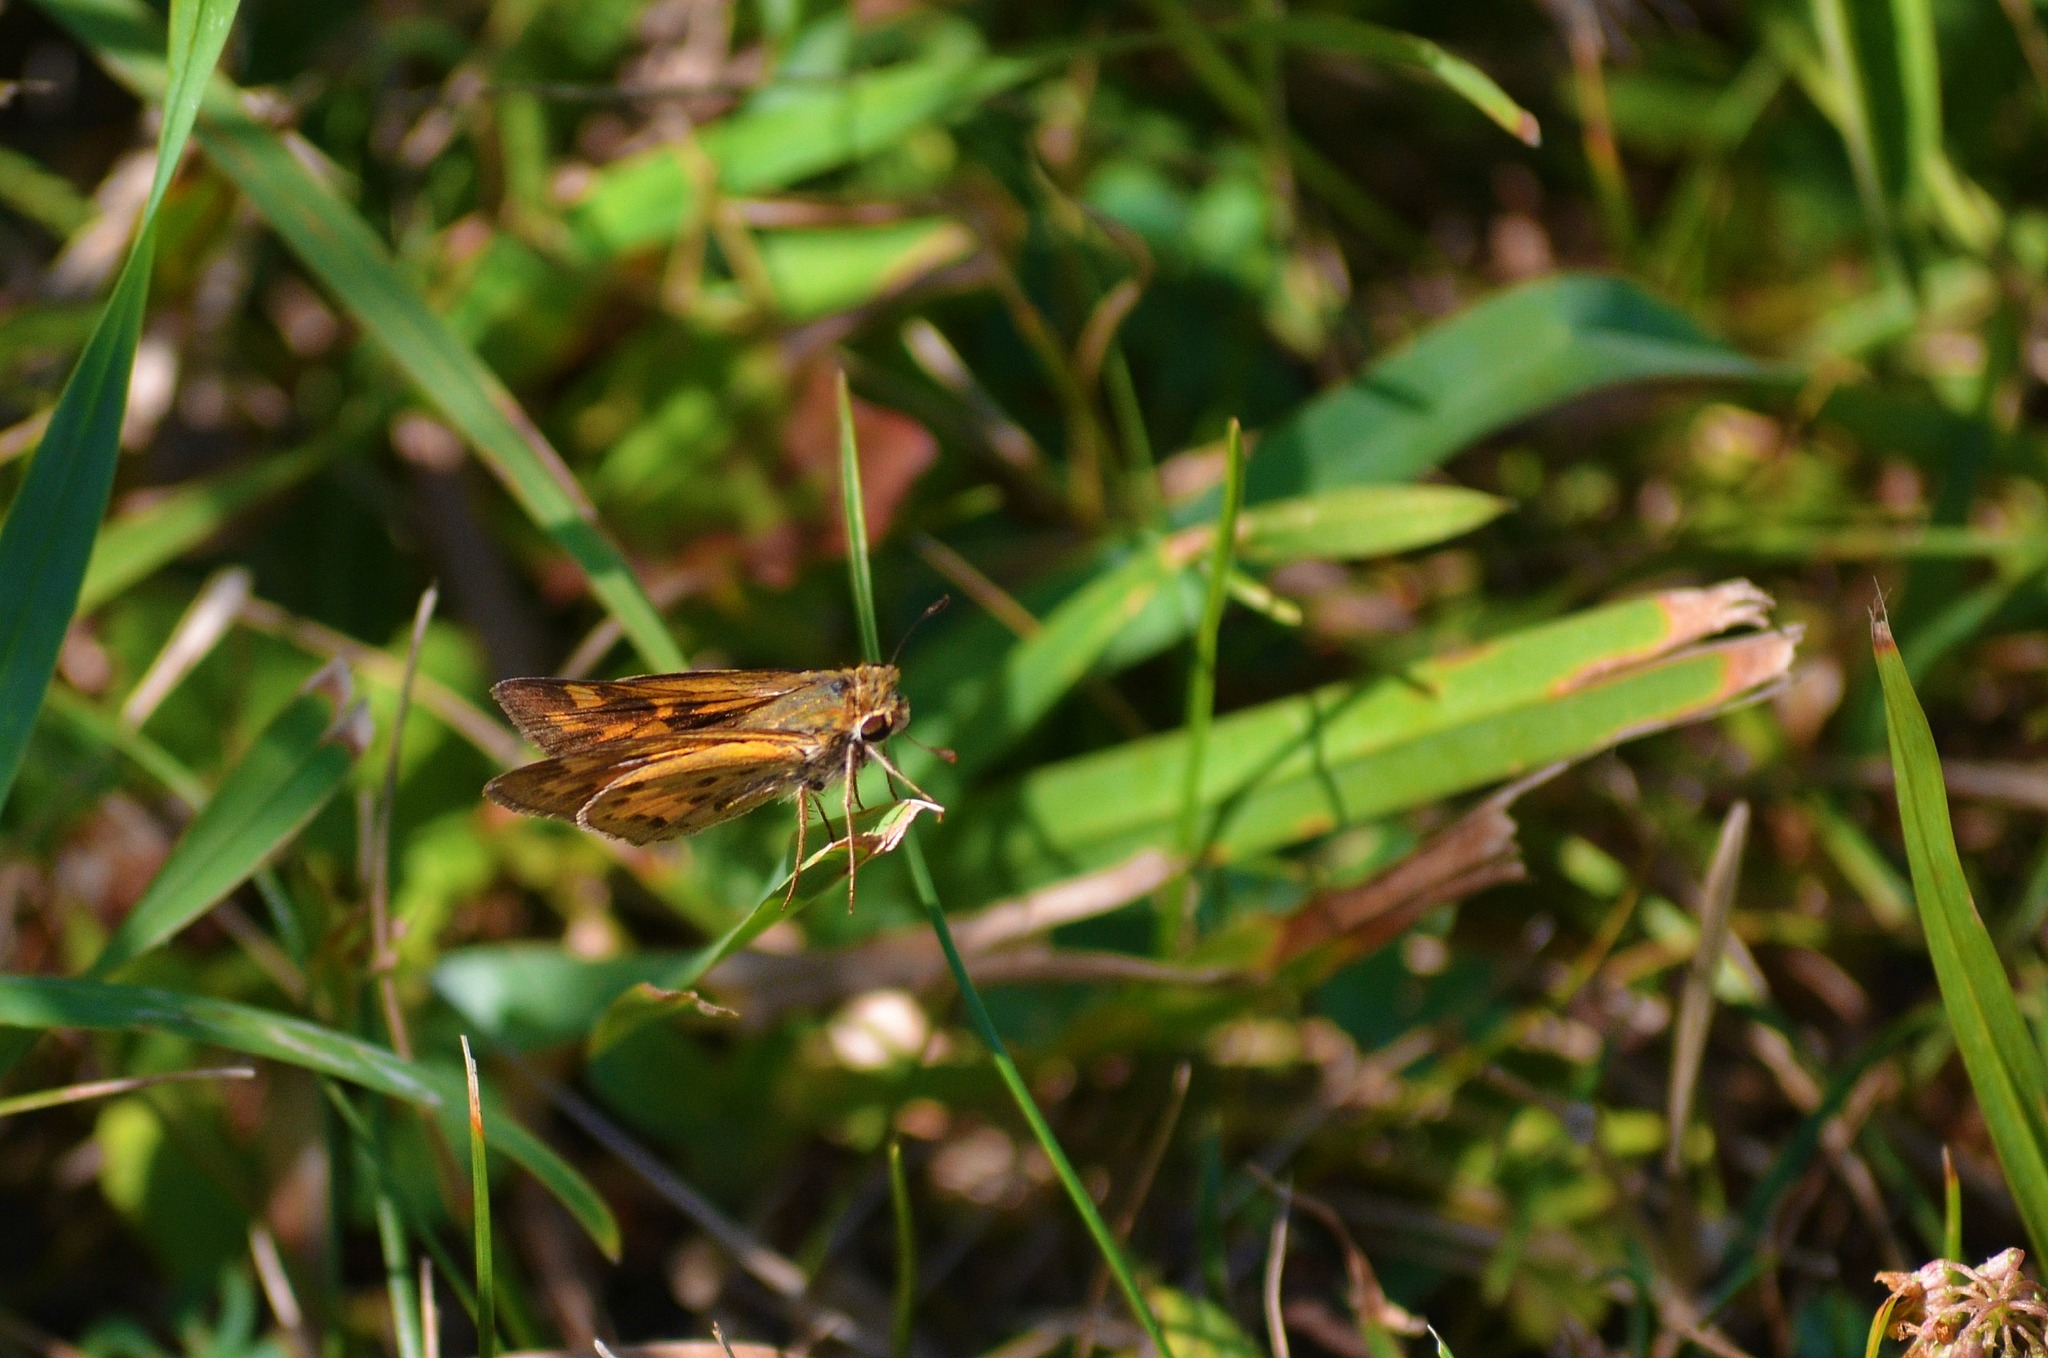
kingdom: Animalia
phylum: Arthropoda
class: Insecta
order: Lepidoptera
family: Hesperiidae
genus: Hylephila
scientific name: Hylephila phyleus
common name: Fiery skipper
